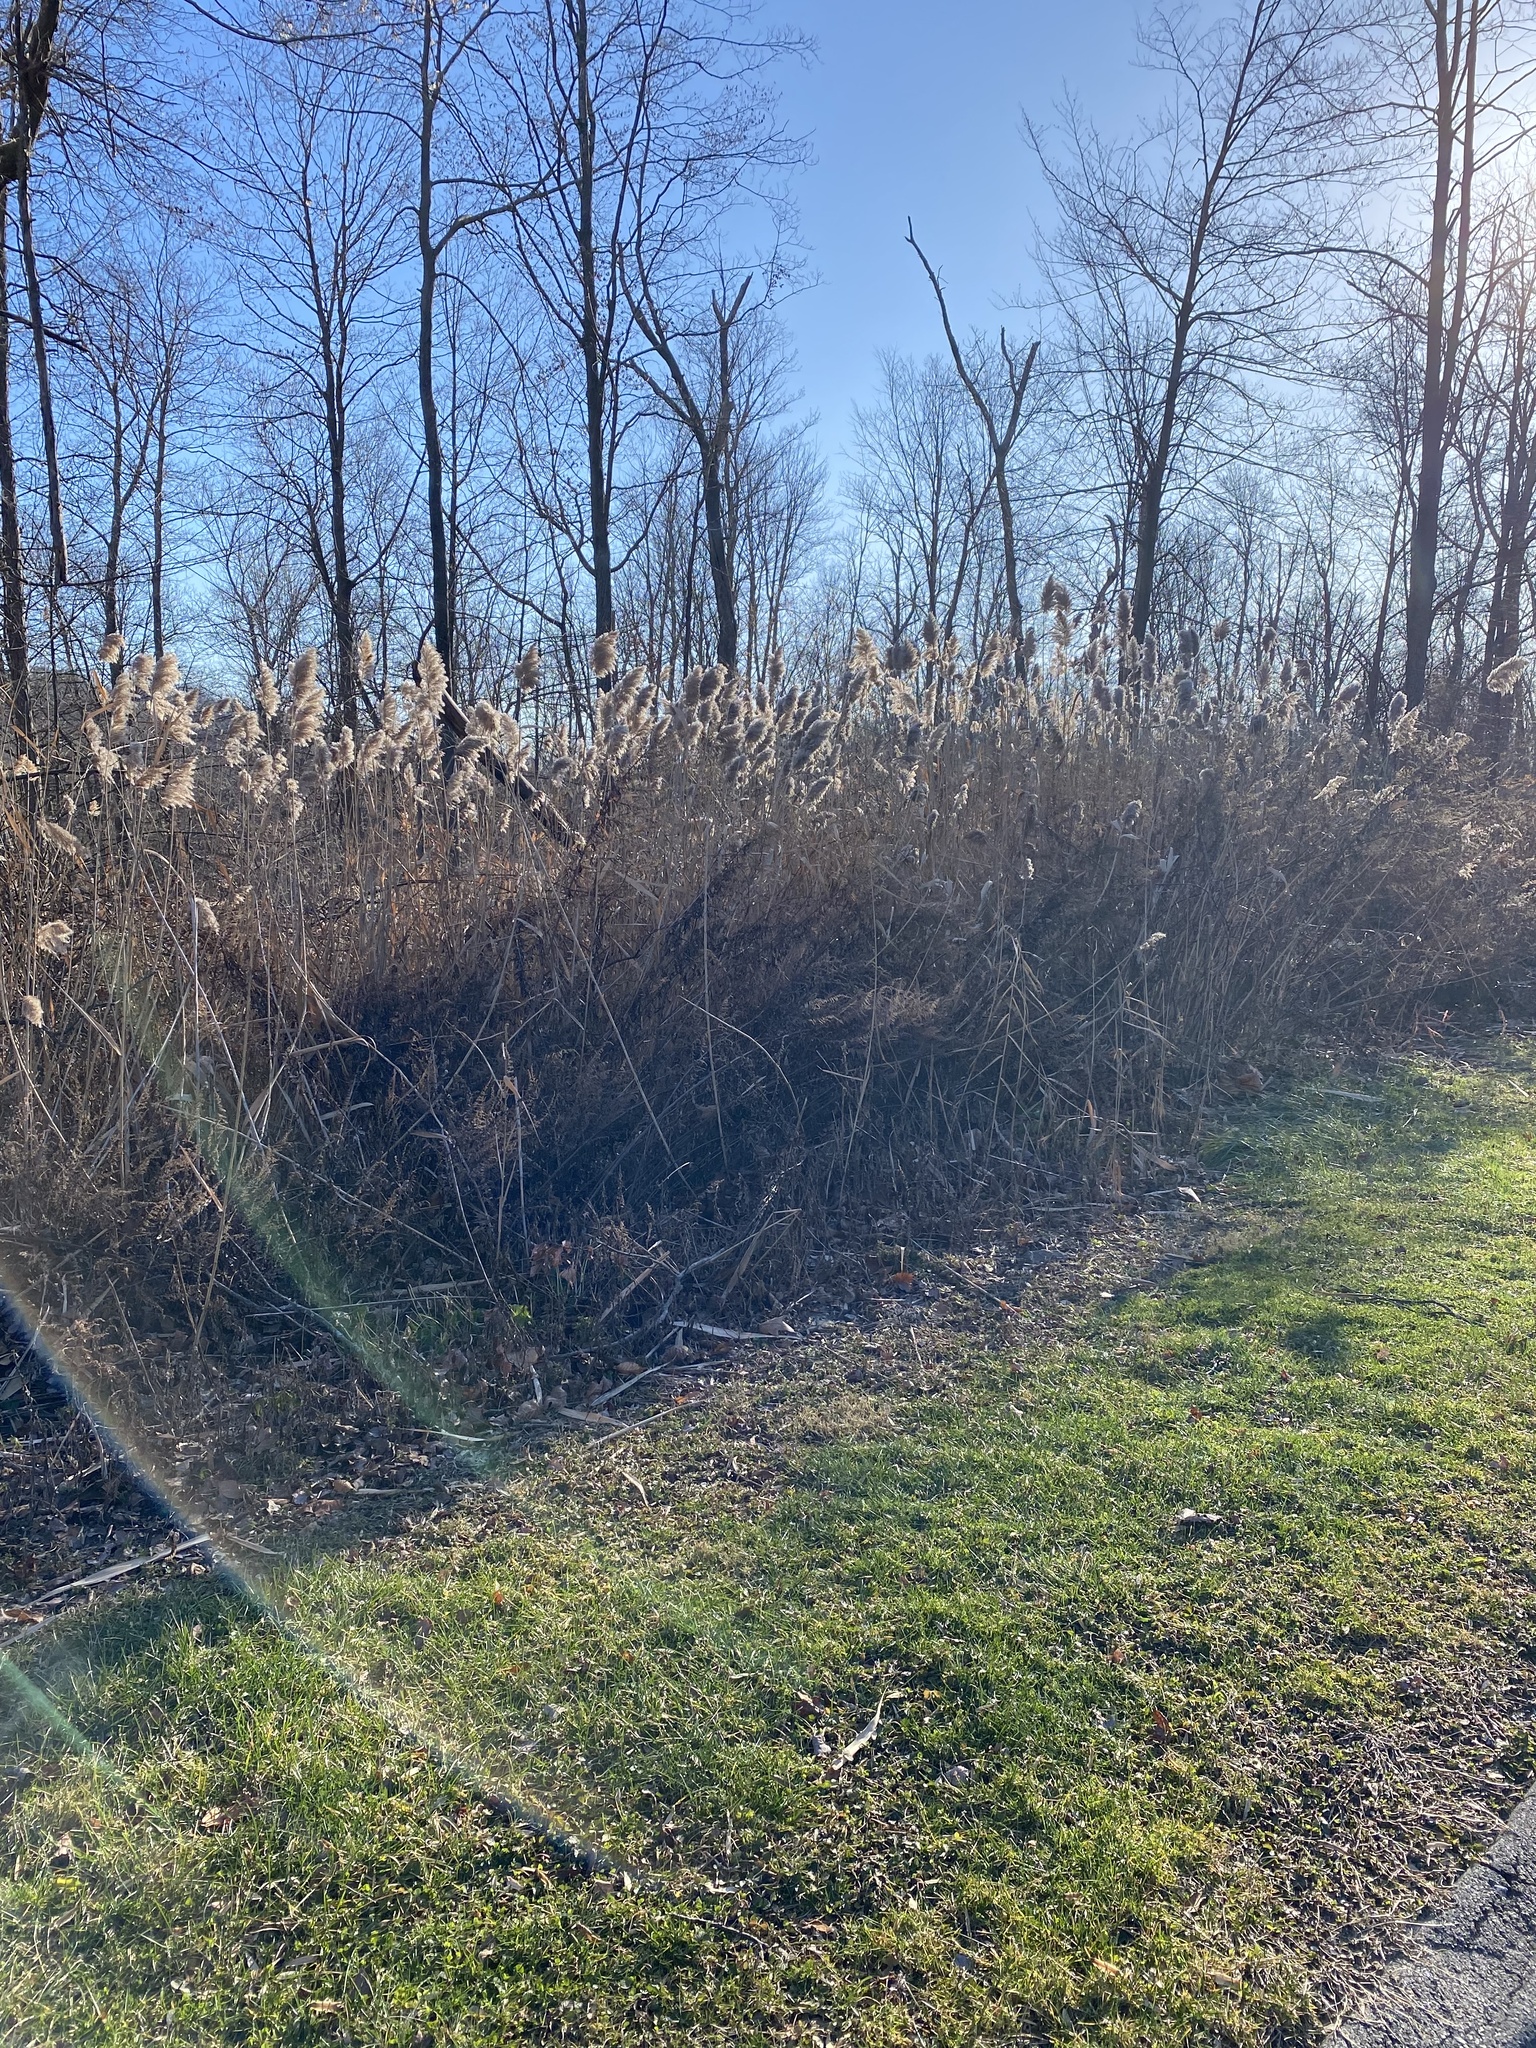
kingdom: Plantae
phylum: Tracheophyta
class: Liliopsida
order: Poales
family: Poaceae
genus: Phragmites
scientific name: Phragmites australis
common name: Common reed
